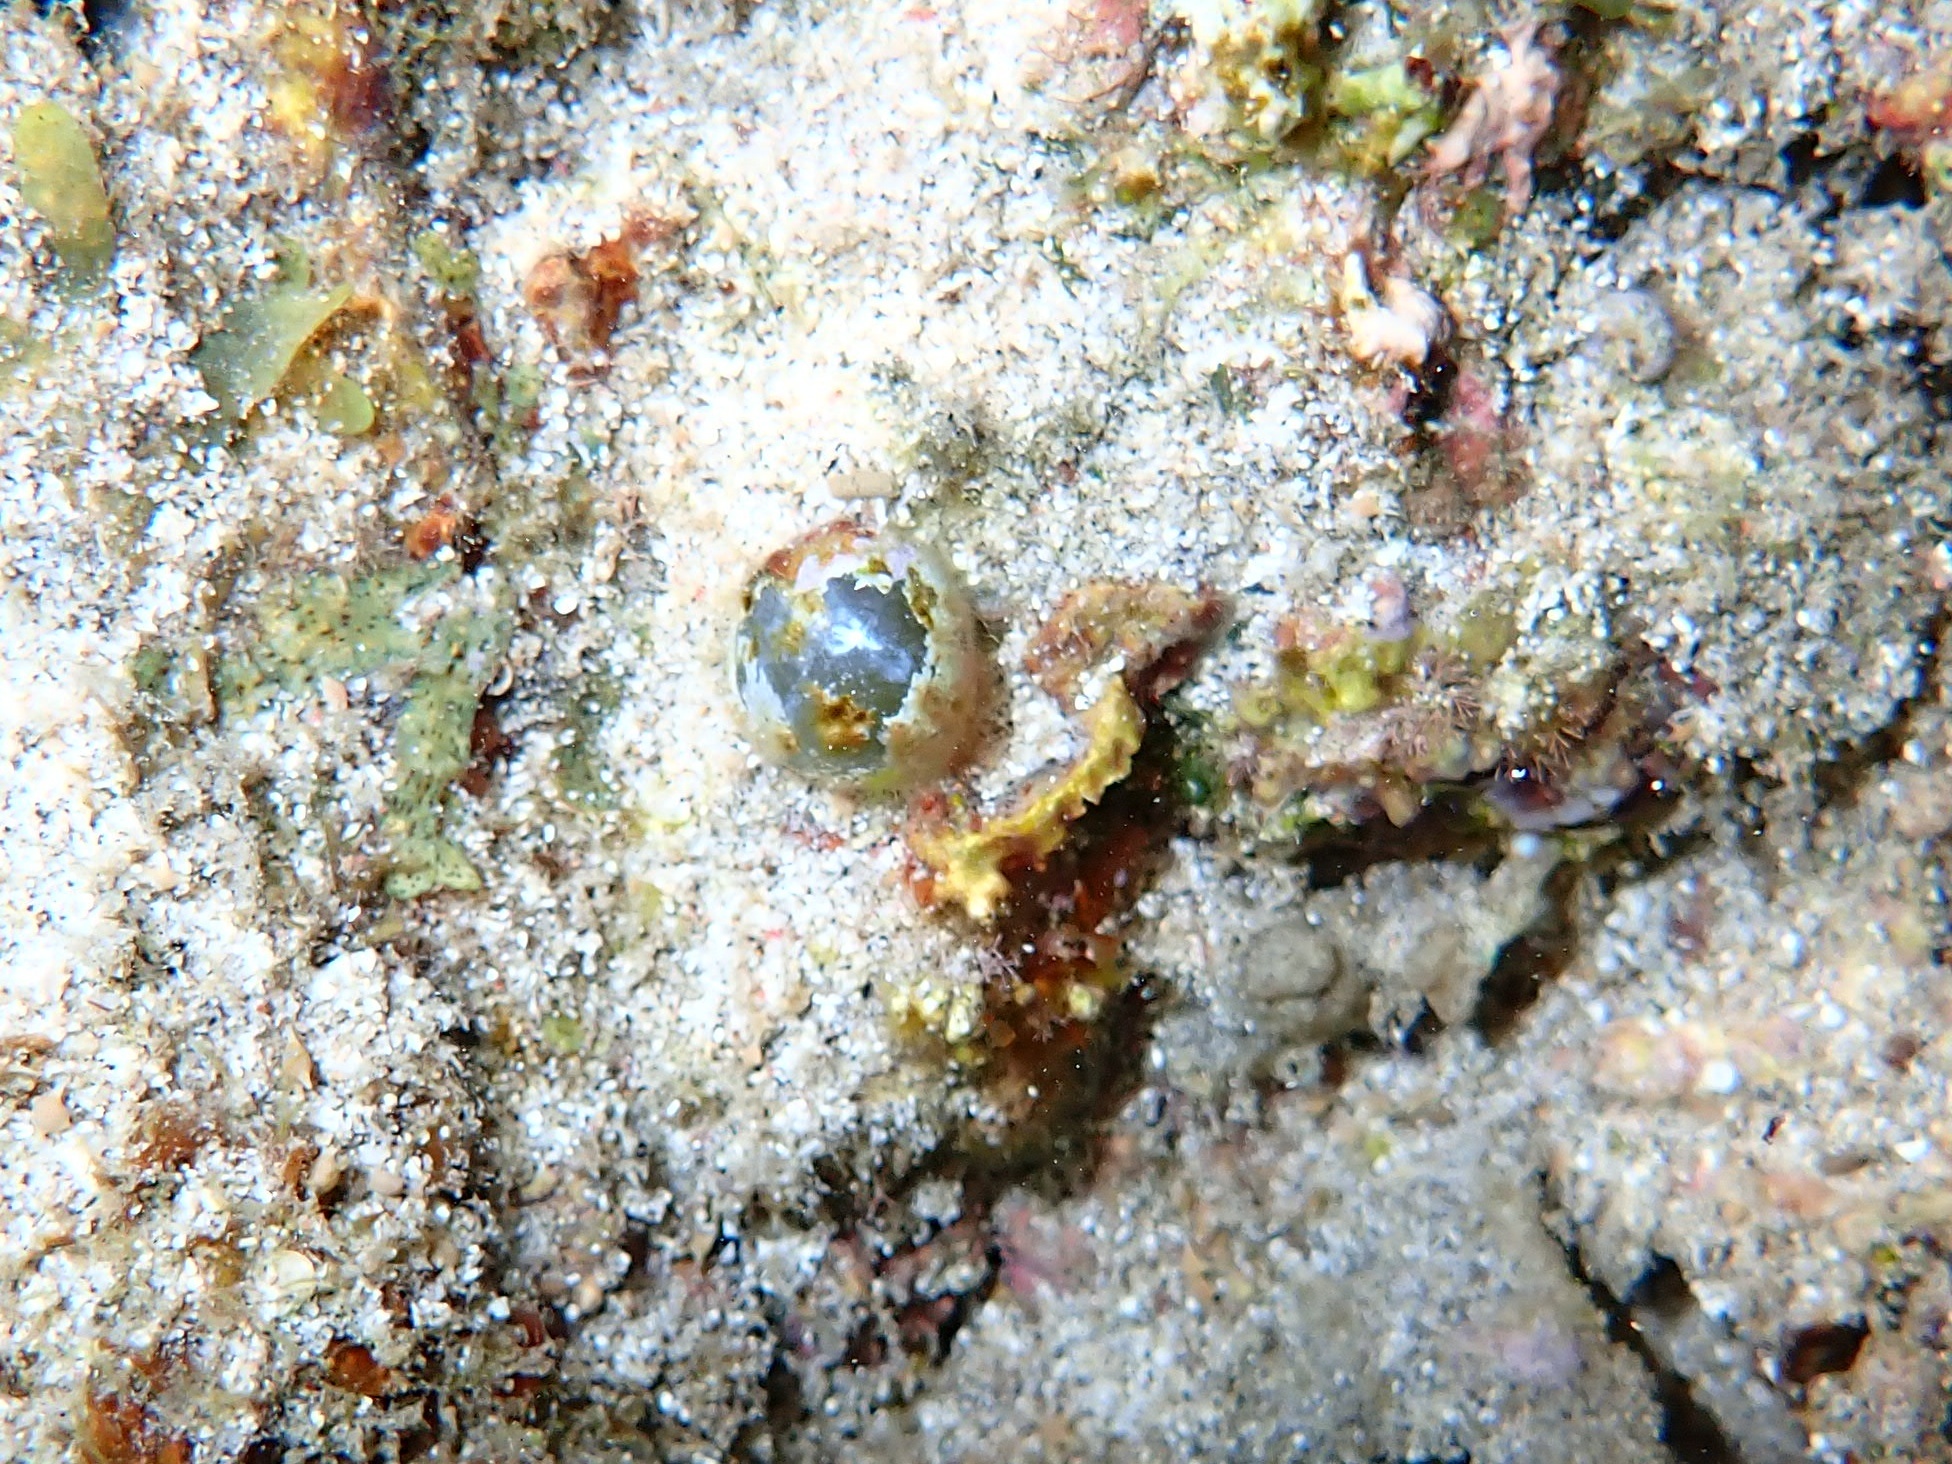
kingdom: Plantae
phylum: Chlorophyta
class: Ulvophyceae
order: Siphonocladales
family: Valoniaceae
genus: Valonia
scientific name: Valonia ventricosa
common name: Sea pearl
